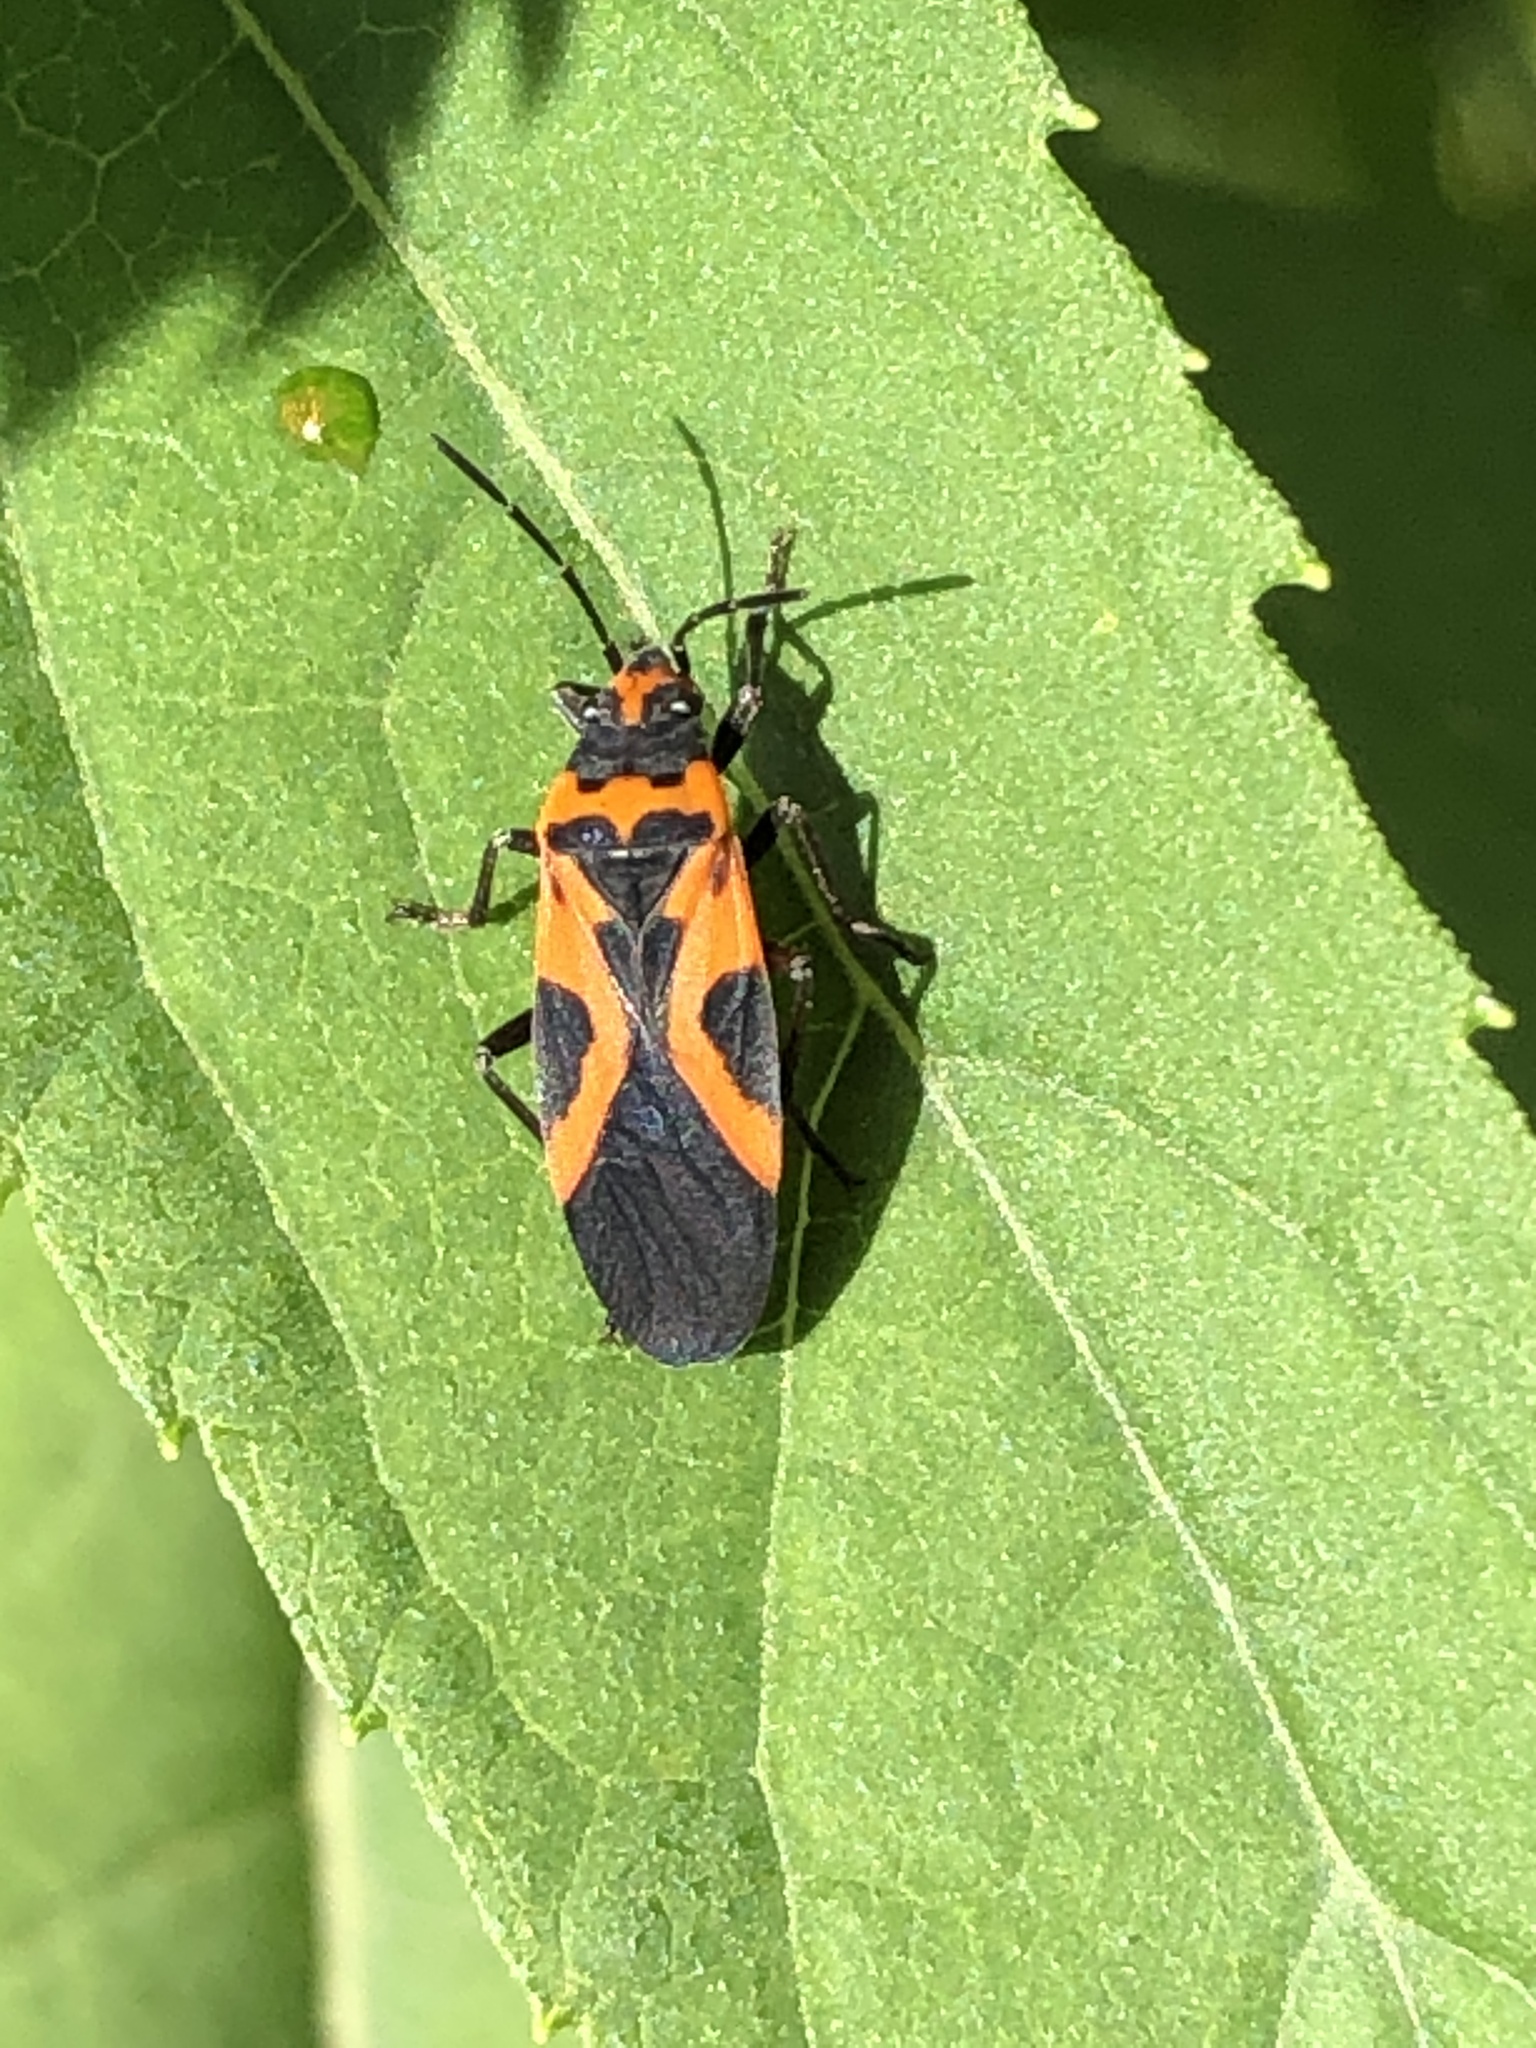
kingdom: Animalia
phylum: Arthropoda
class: Insecta
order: Hemiptera
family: Lygaeidae
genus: Lygaeus
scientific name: Lygaeus turcicus
